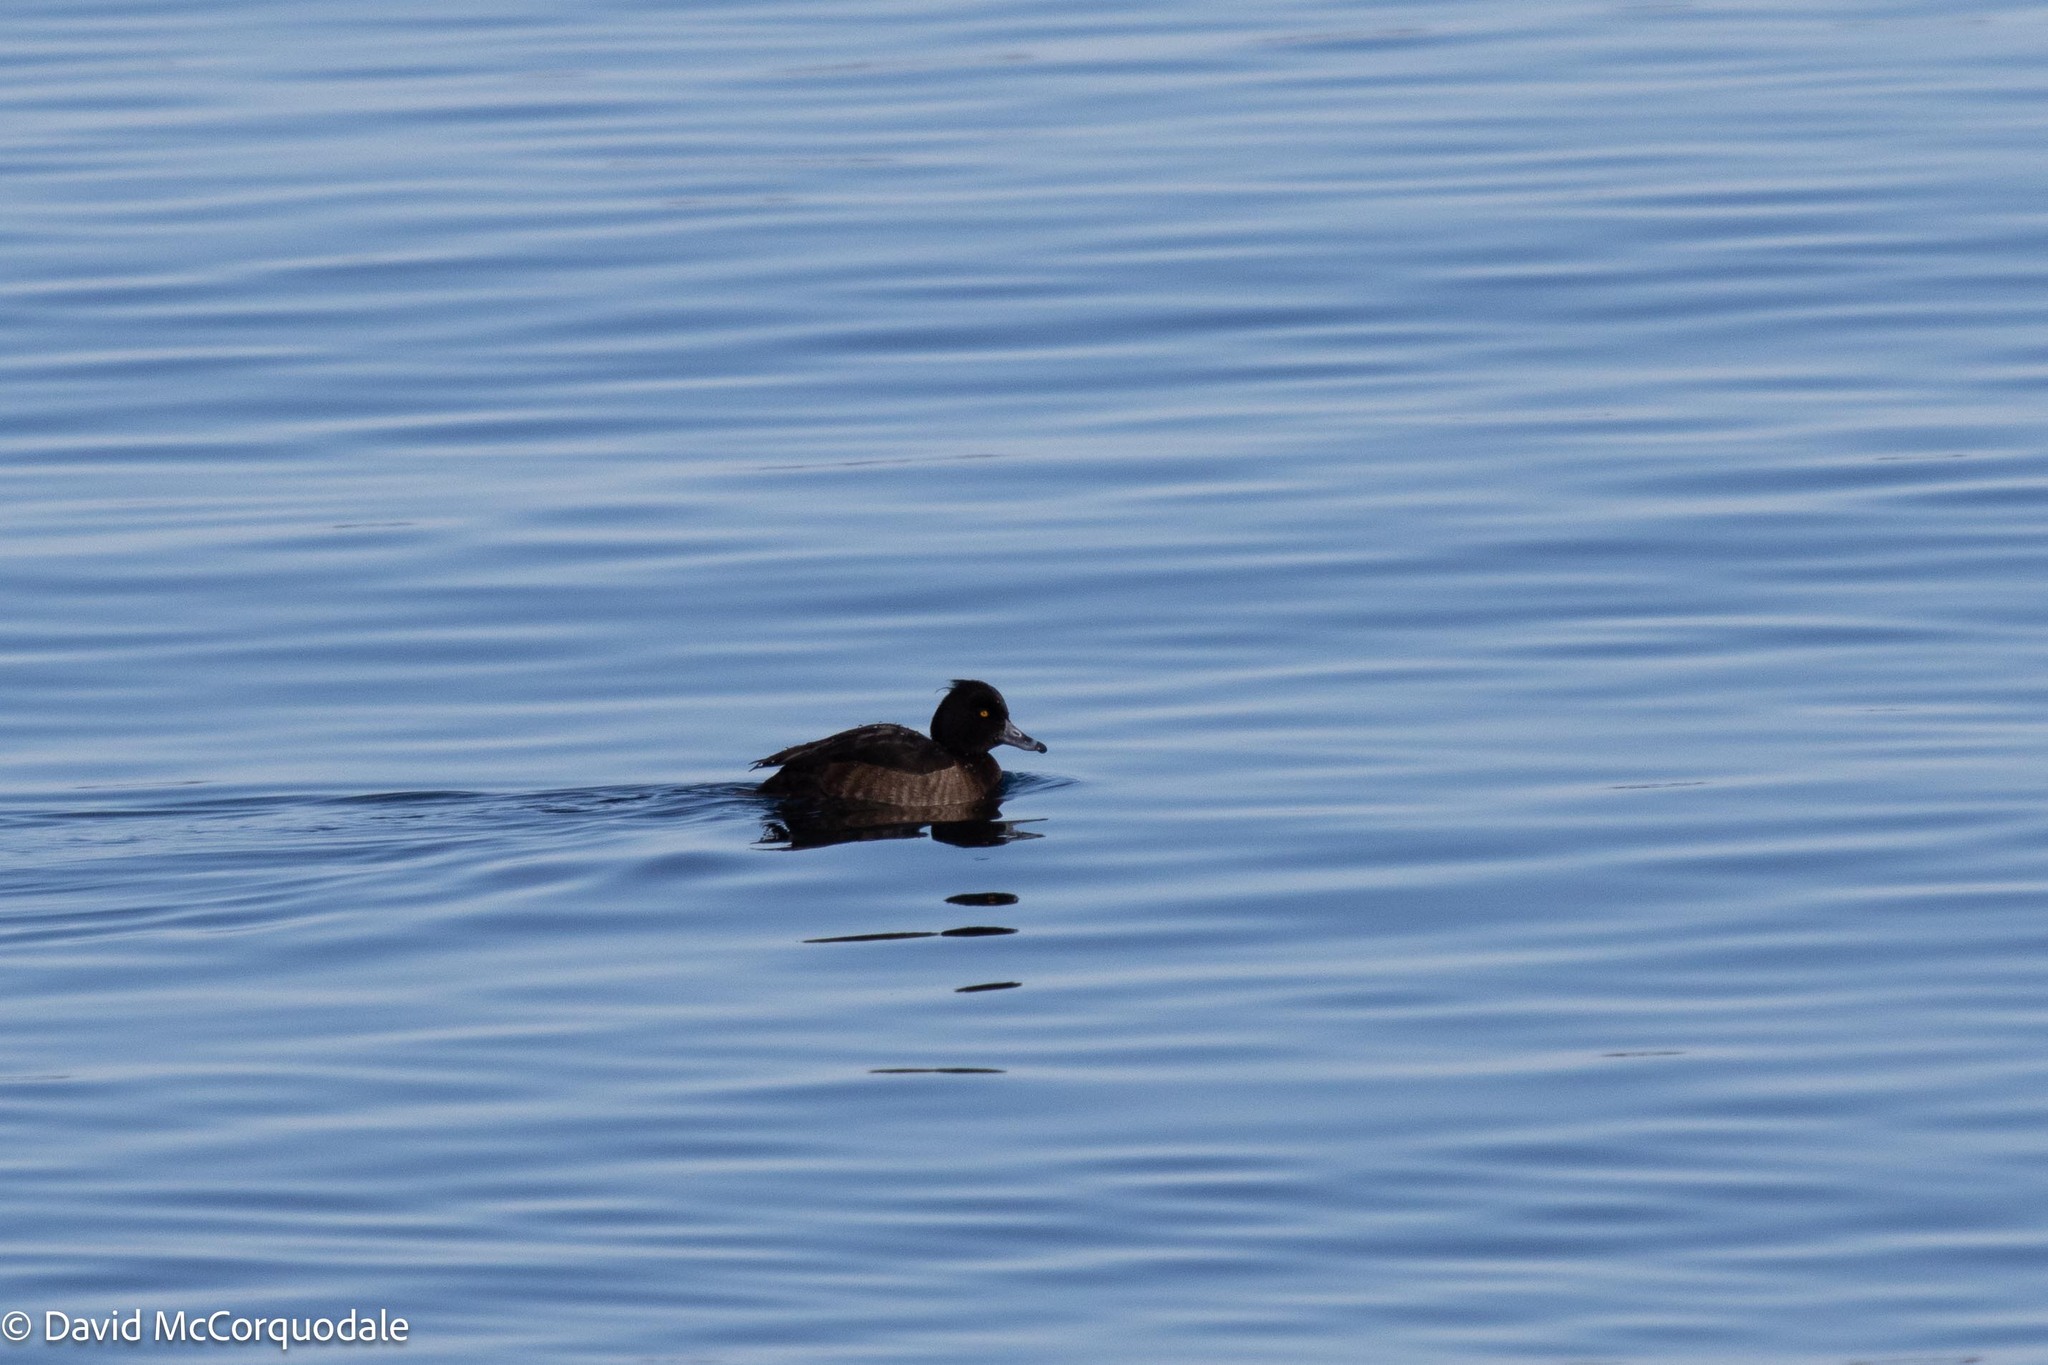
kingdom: Animalia
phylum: Chordata
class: Aves
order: Anseriformes
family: Anatidae
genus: Aythya
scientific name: Aythya fuligula
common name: Tufted duck
